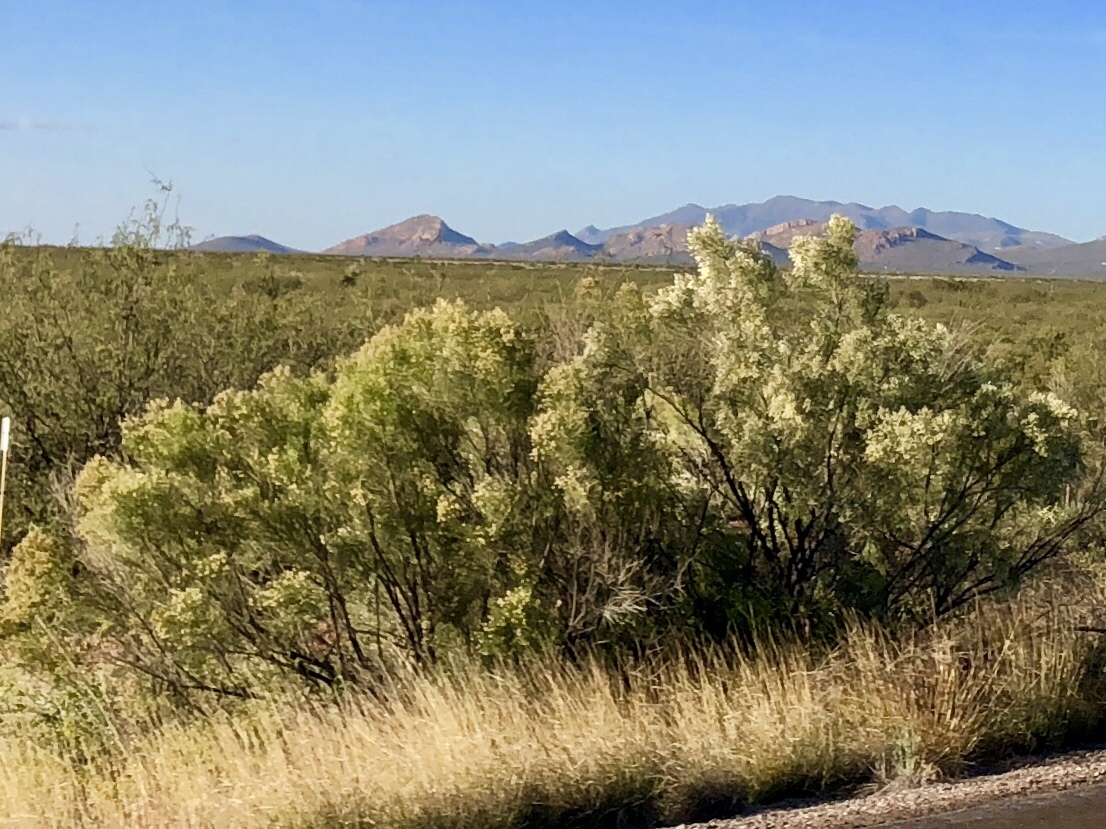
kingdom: Plantae
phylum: Tracheophyta
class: Magnoliopsida
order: Asterales
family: Asteraceae
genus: Baccharis
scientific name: Baccharis sarothroides
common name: Desert-broom
